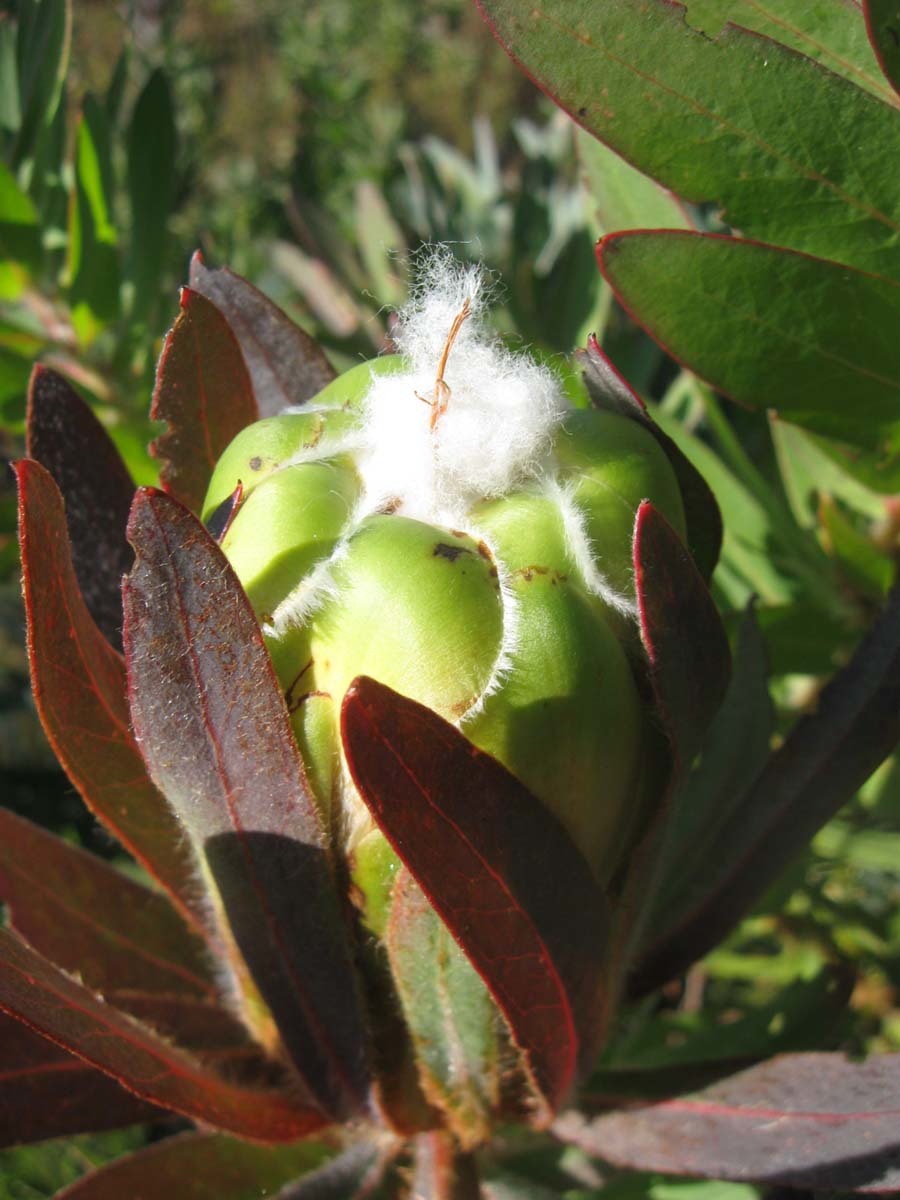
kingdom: Plantae
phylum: Tracheophyta
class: Magnoliopsida
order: Proteales
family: Proteaceae
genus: Protea
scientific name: Protea coronata
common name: Green sugarbush
